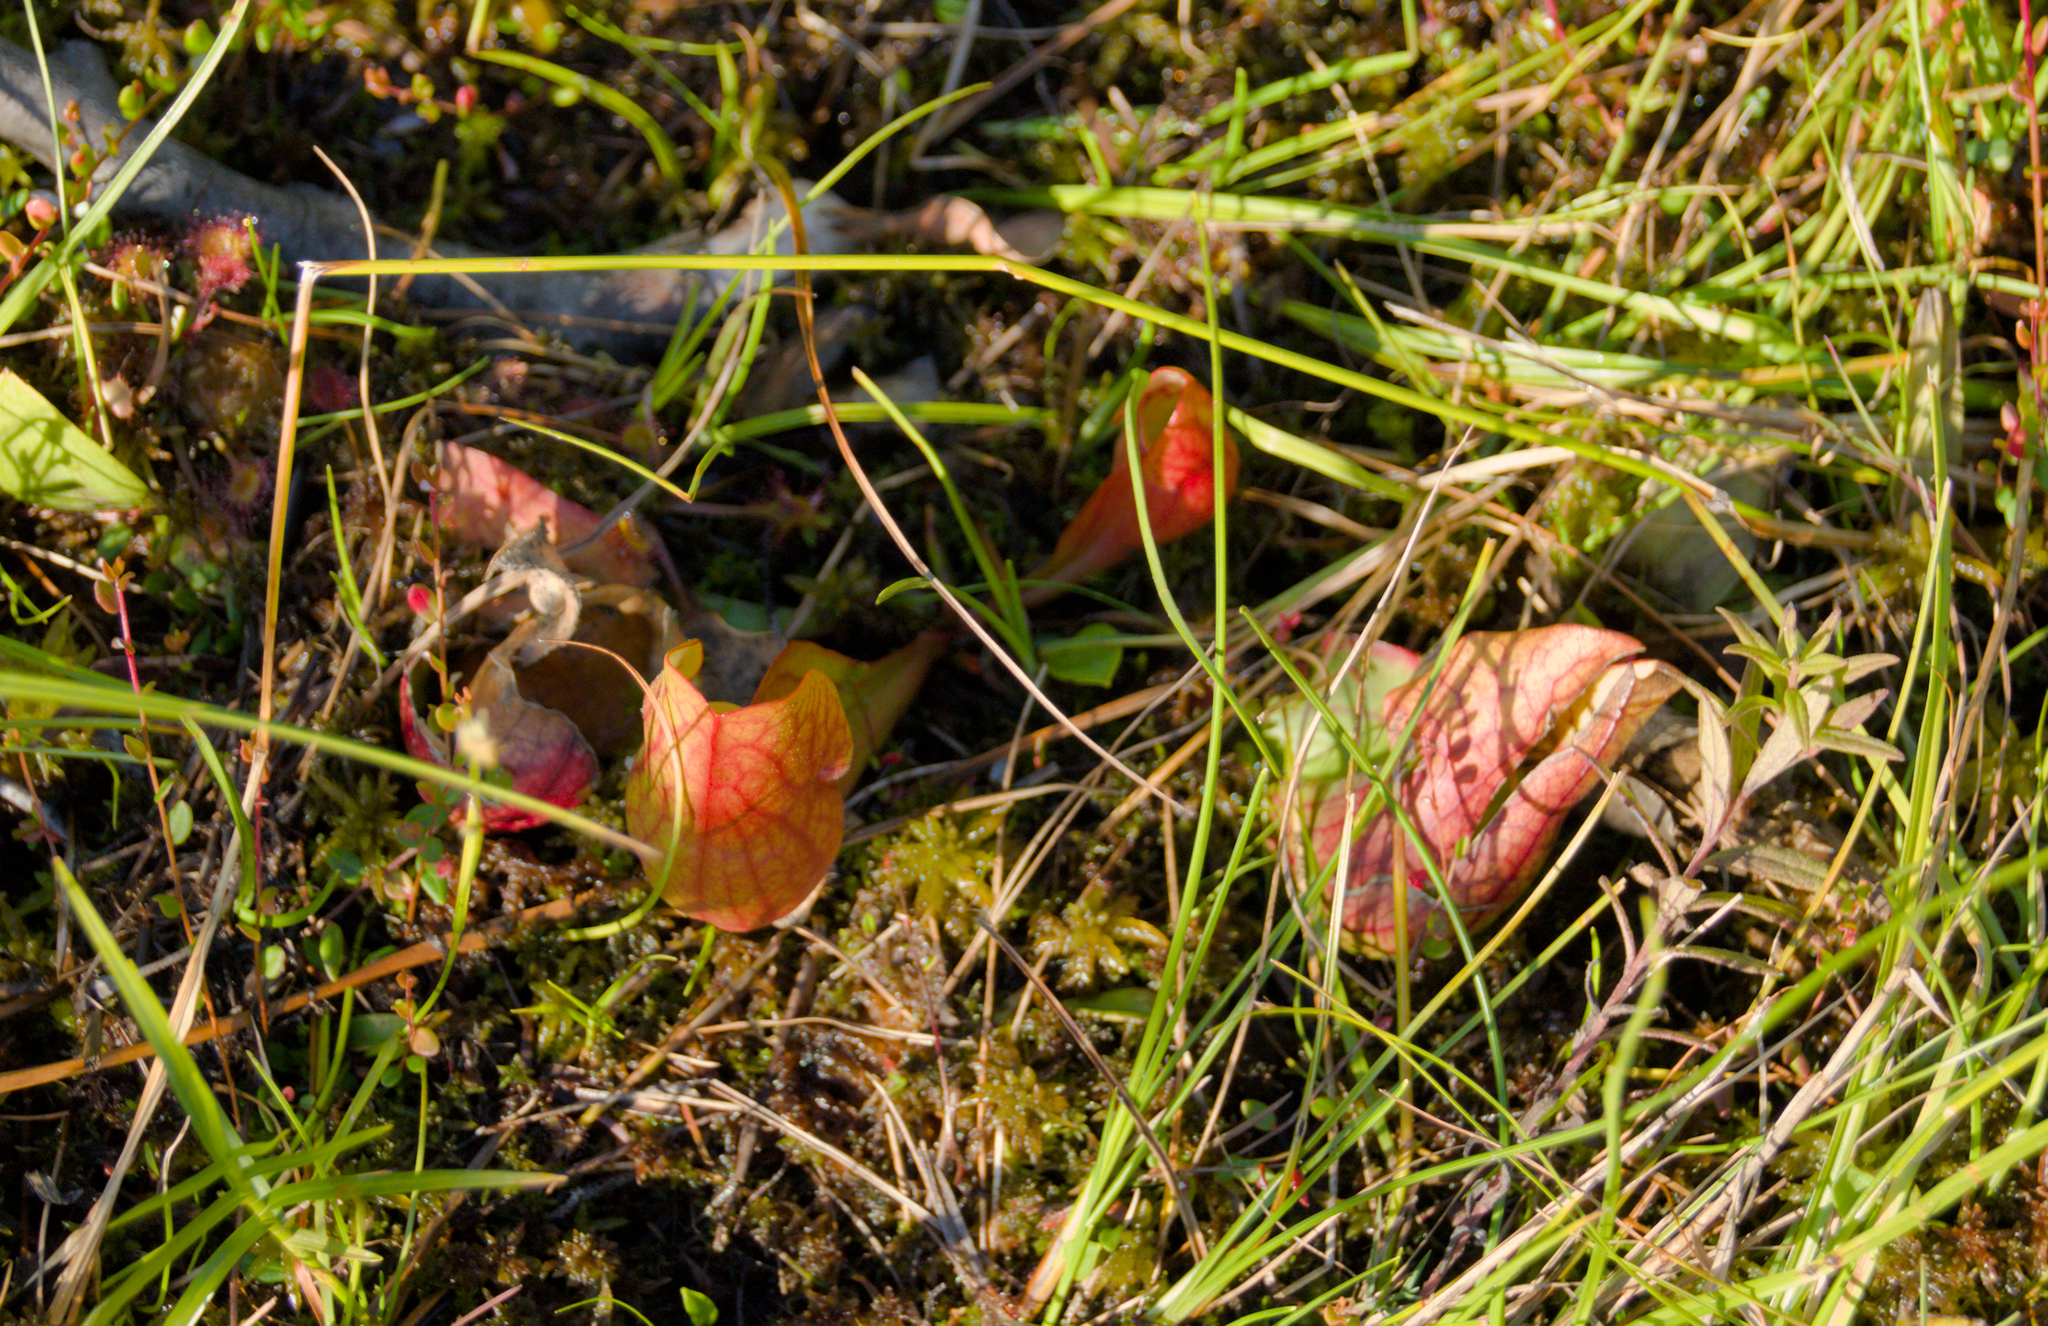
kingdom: Plantae
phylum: Tracheophyta
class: Magnoliopsida
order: Ericales
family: Sarraceniaceae
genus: Sarracenia
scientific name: Sarracenia purpurea
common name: Pitcherplant
